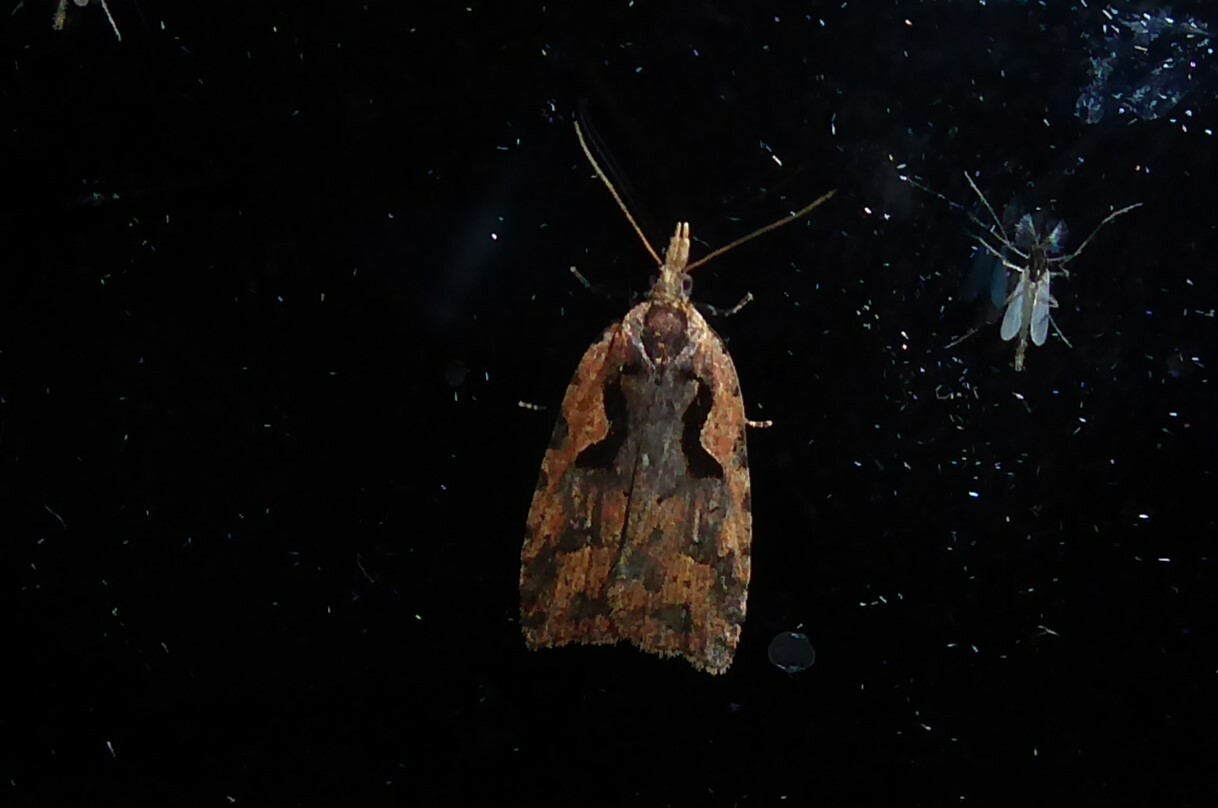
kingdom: Animalia
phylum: Arthropoda
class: Insecta
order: Lepidoptera
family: Tortricidae
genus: Cnephasia
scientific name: Cnephasia jactatana
